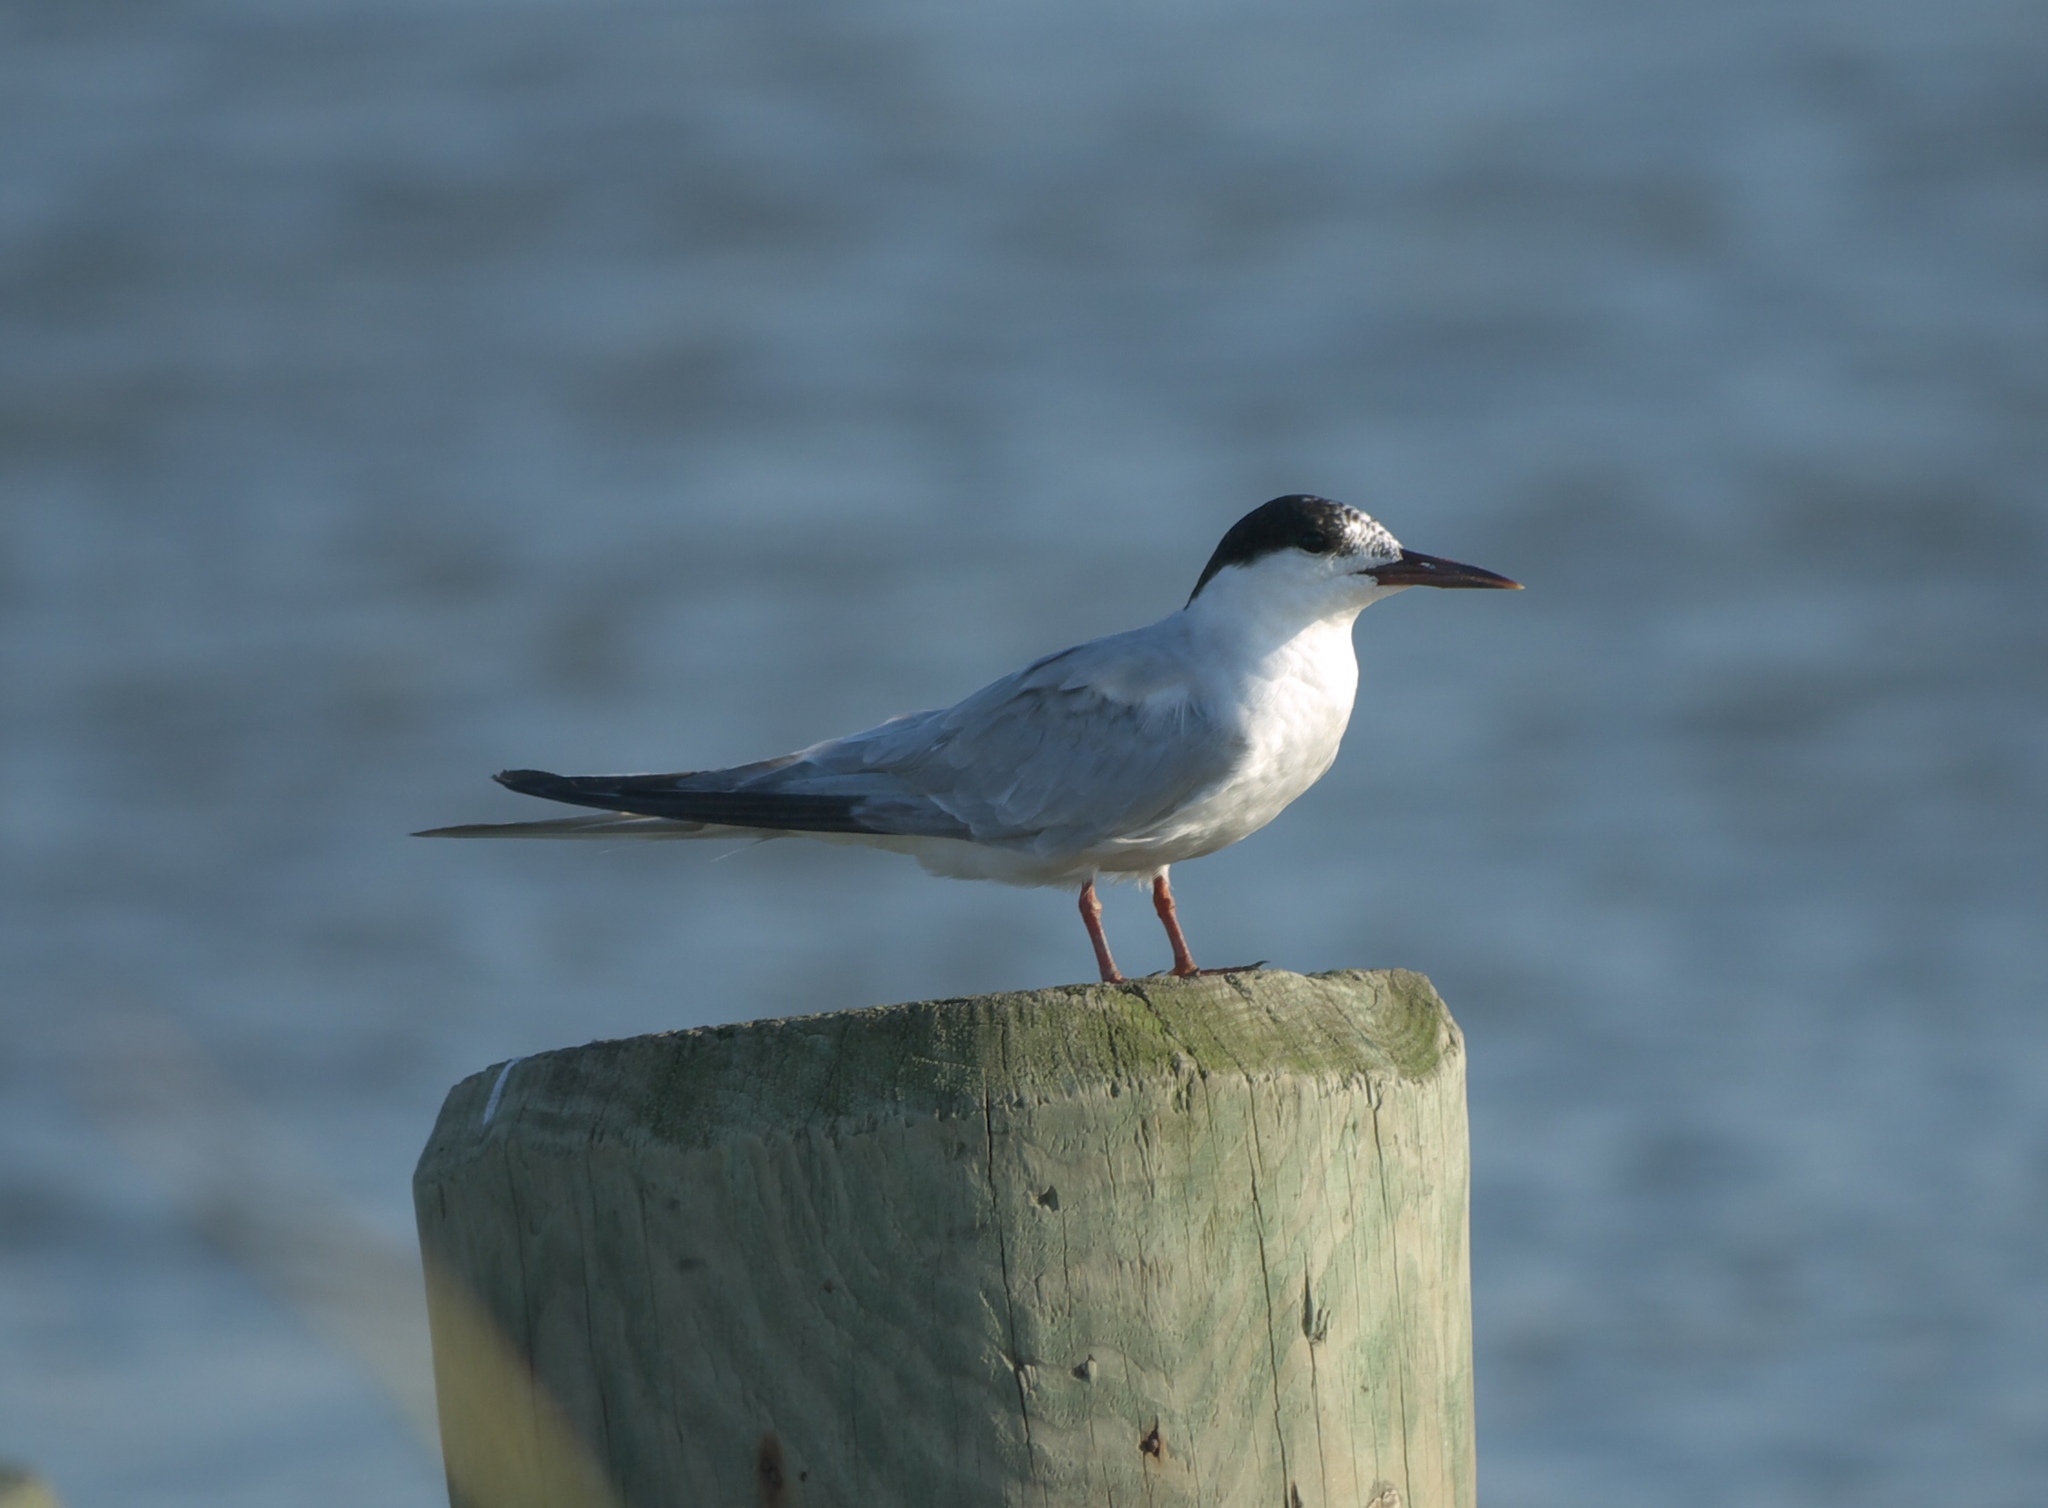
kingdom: Animalia
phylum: Chordata
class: Aves
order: Charadriiformes
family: Laridae
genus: Sterna
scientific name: Sterna hirundo
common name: Common tern
